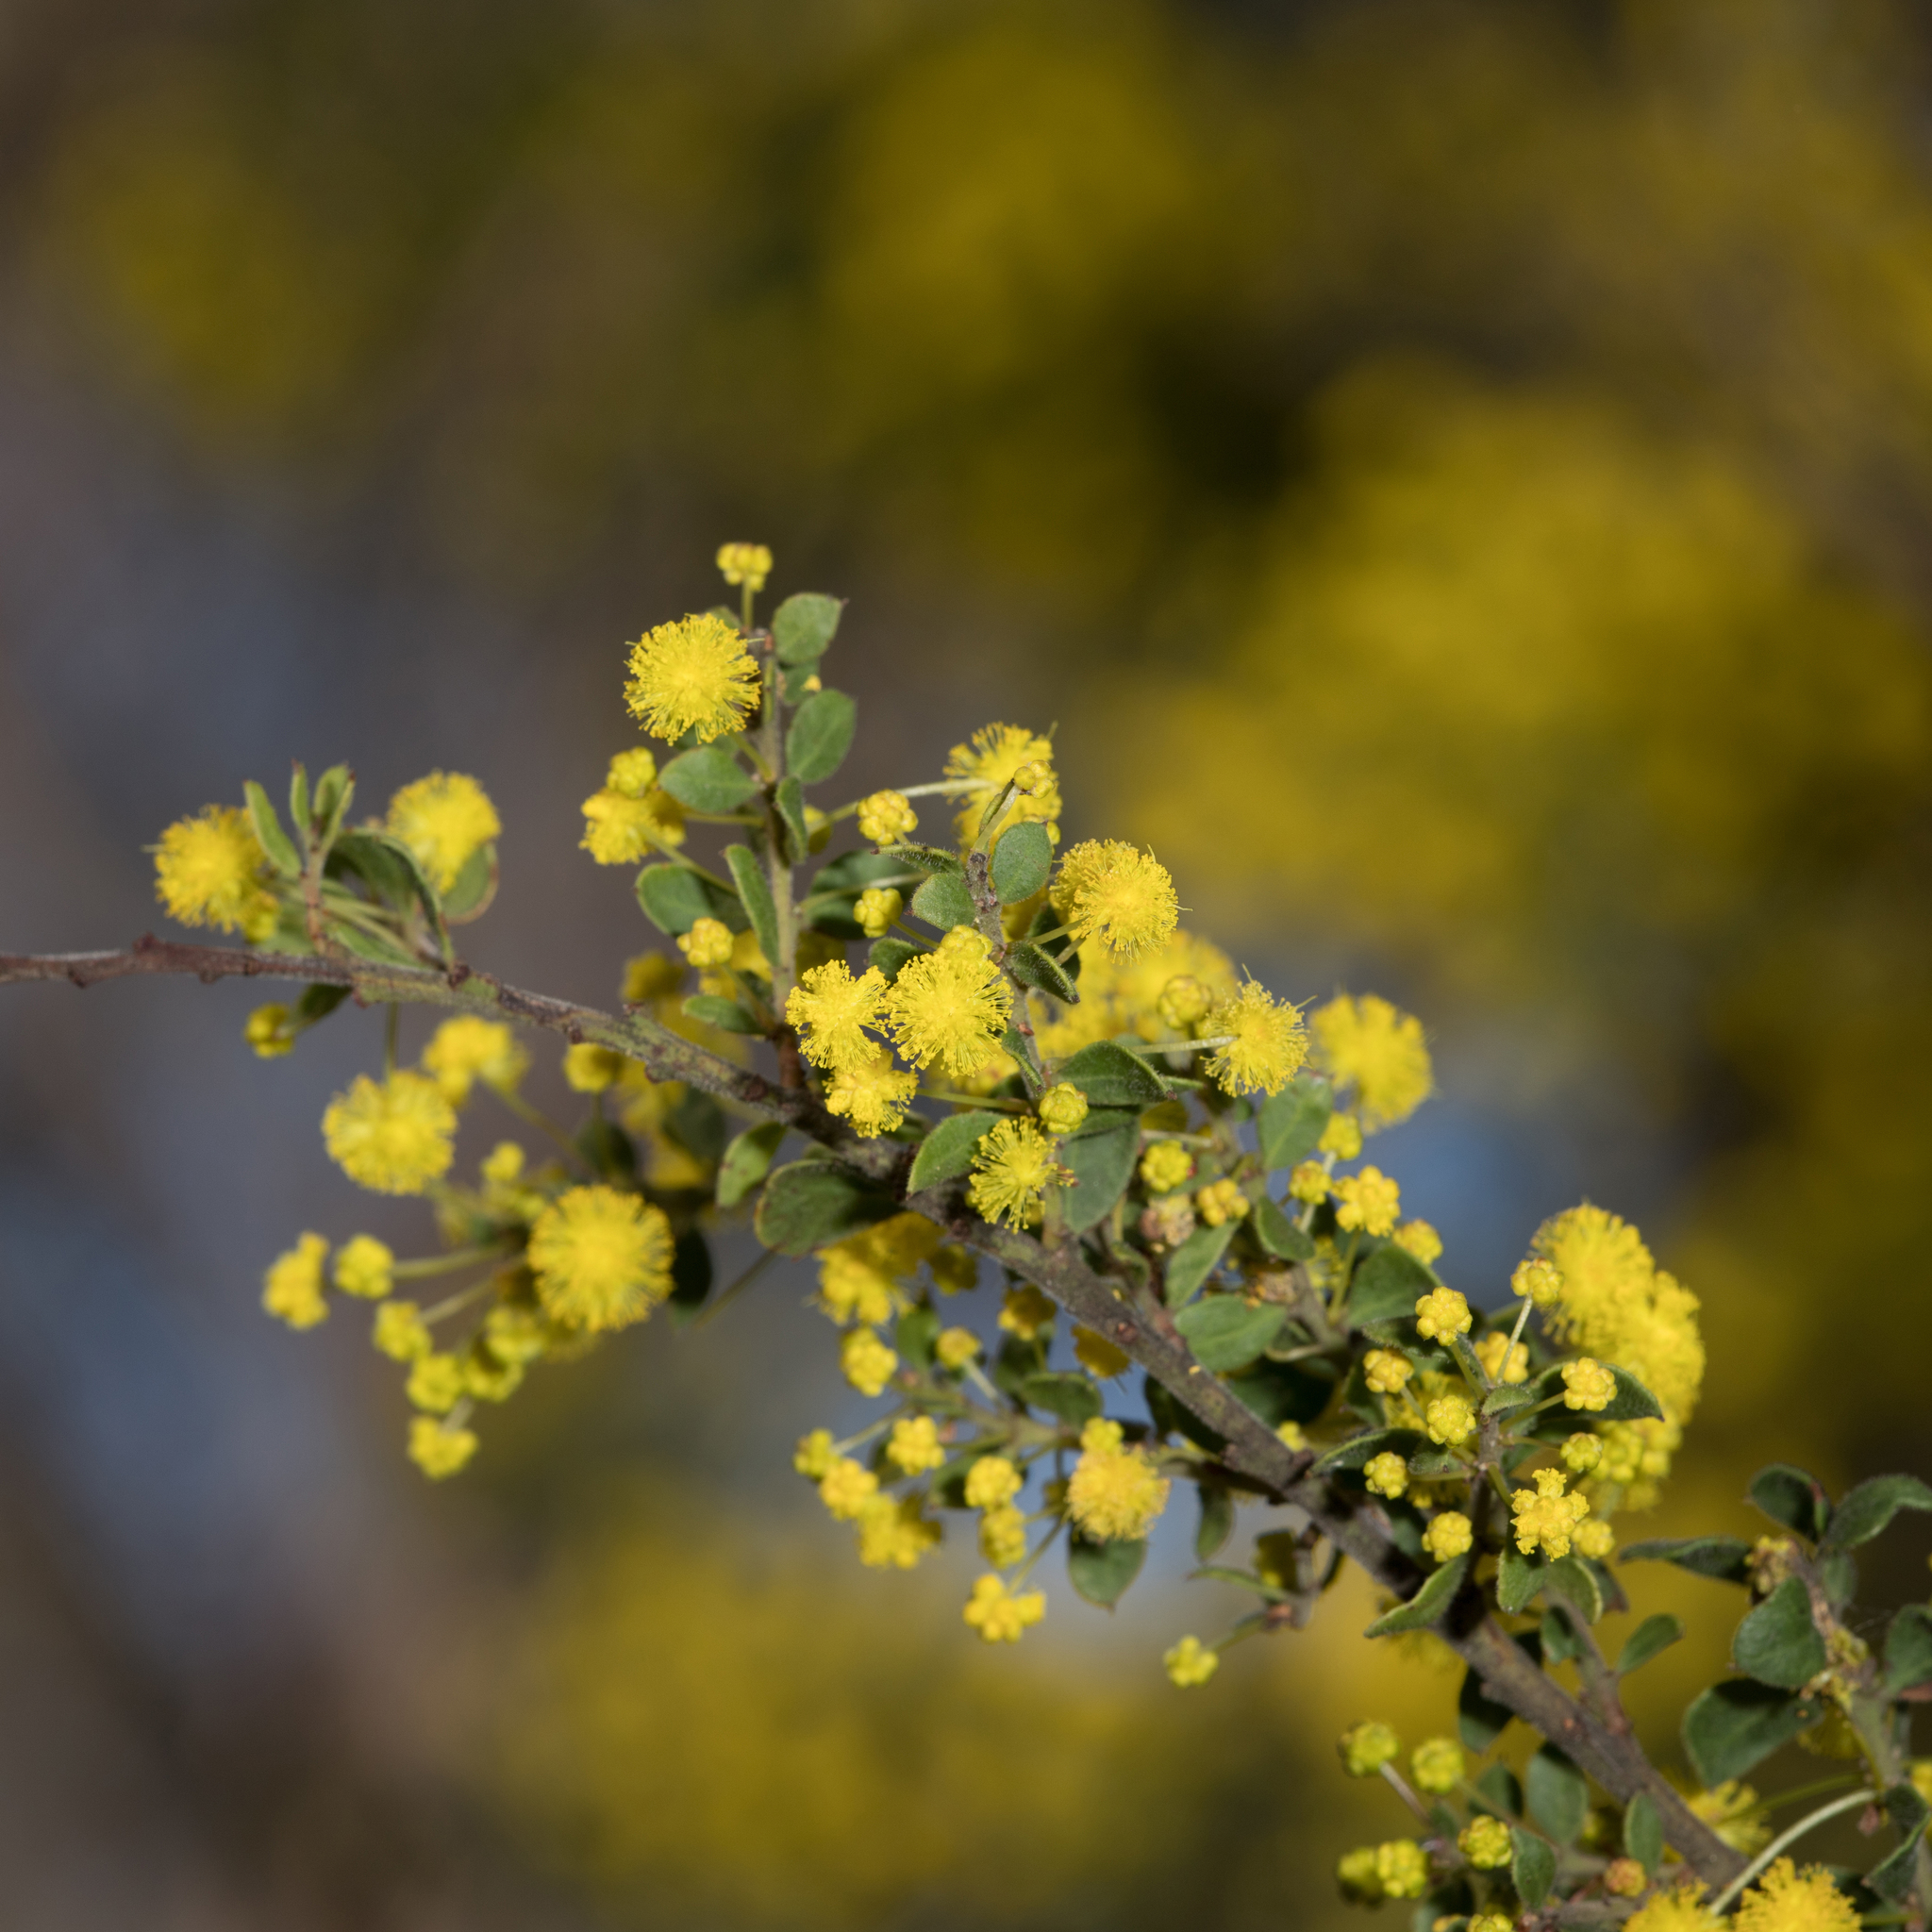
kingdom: Plantae
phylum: Tracheophyta
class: Magnoliopsida
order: Fabales
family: Fabaceae
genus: Acacia
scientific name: Acacia acinacea
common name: Gold-dust acacia
